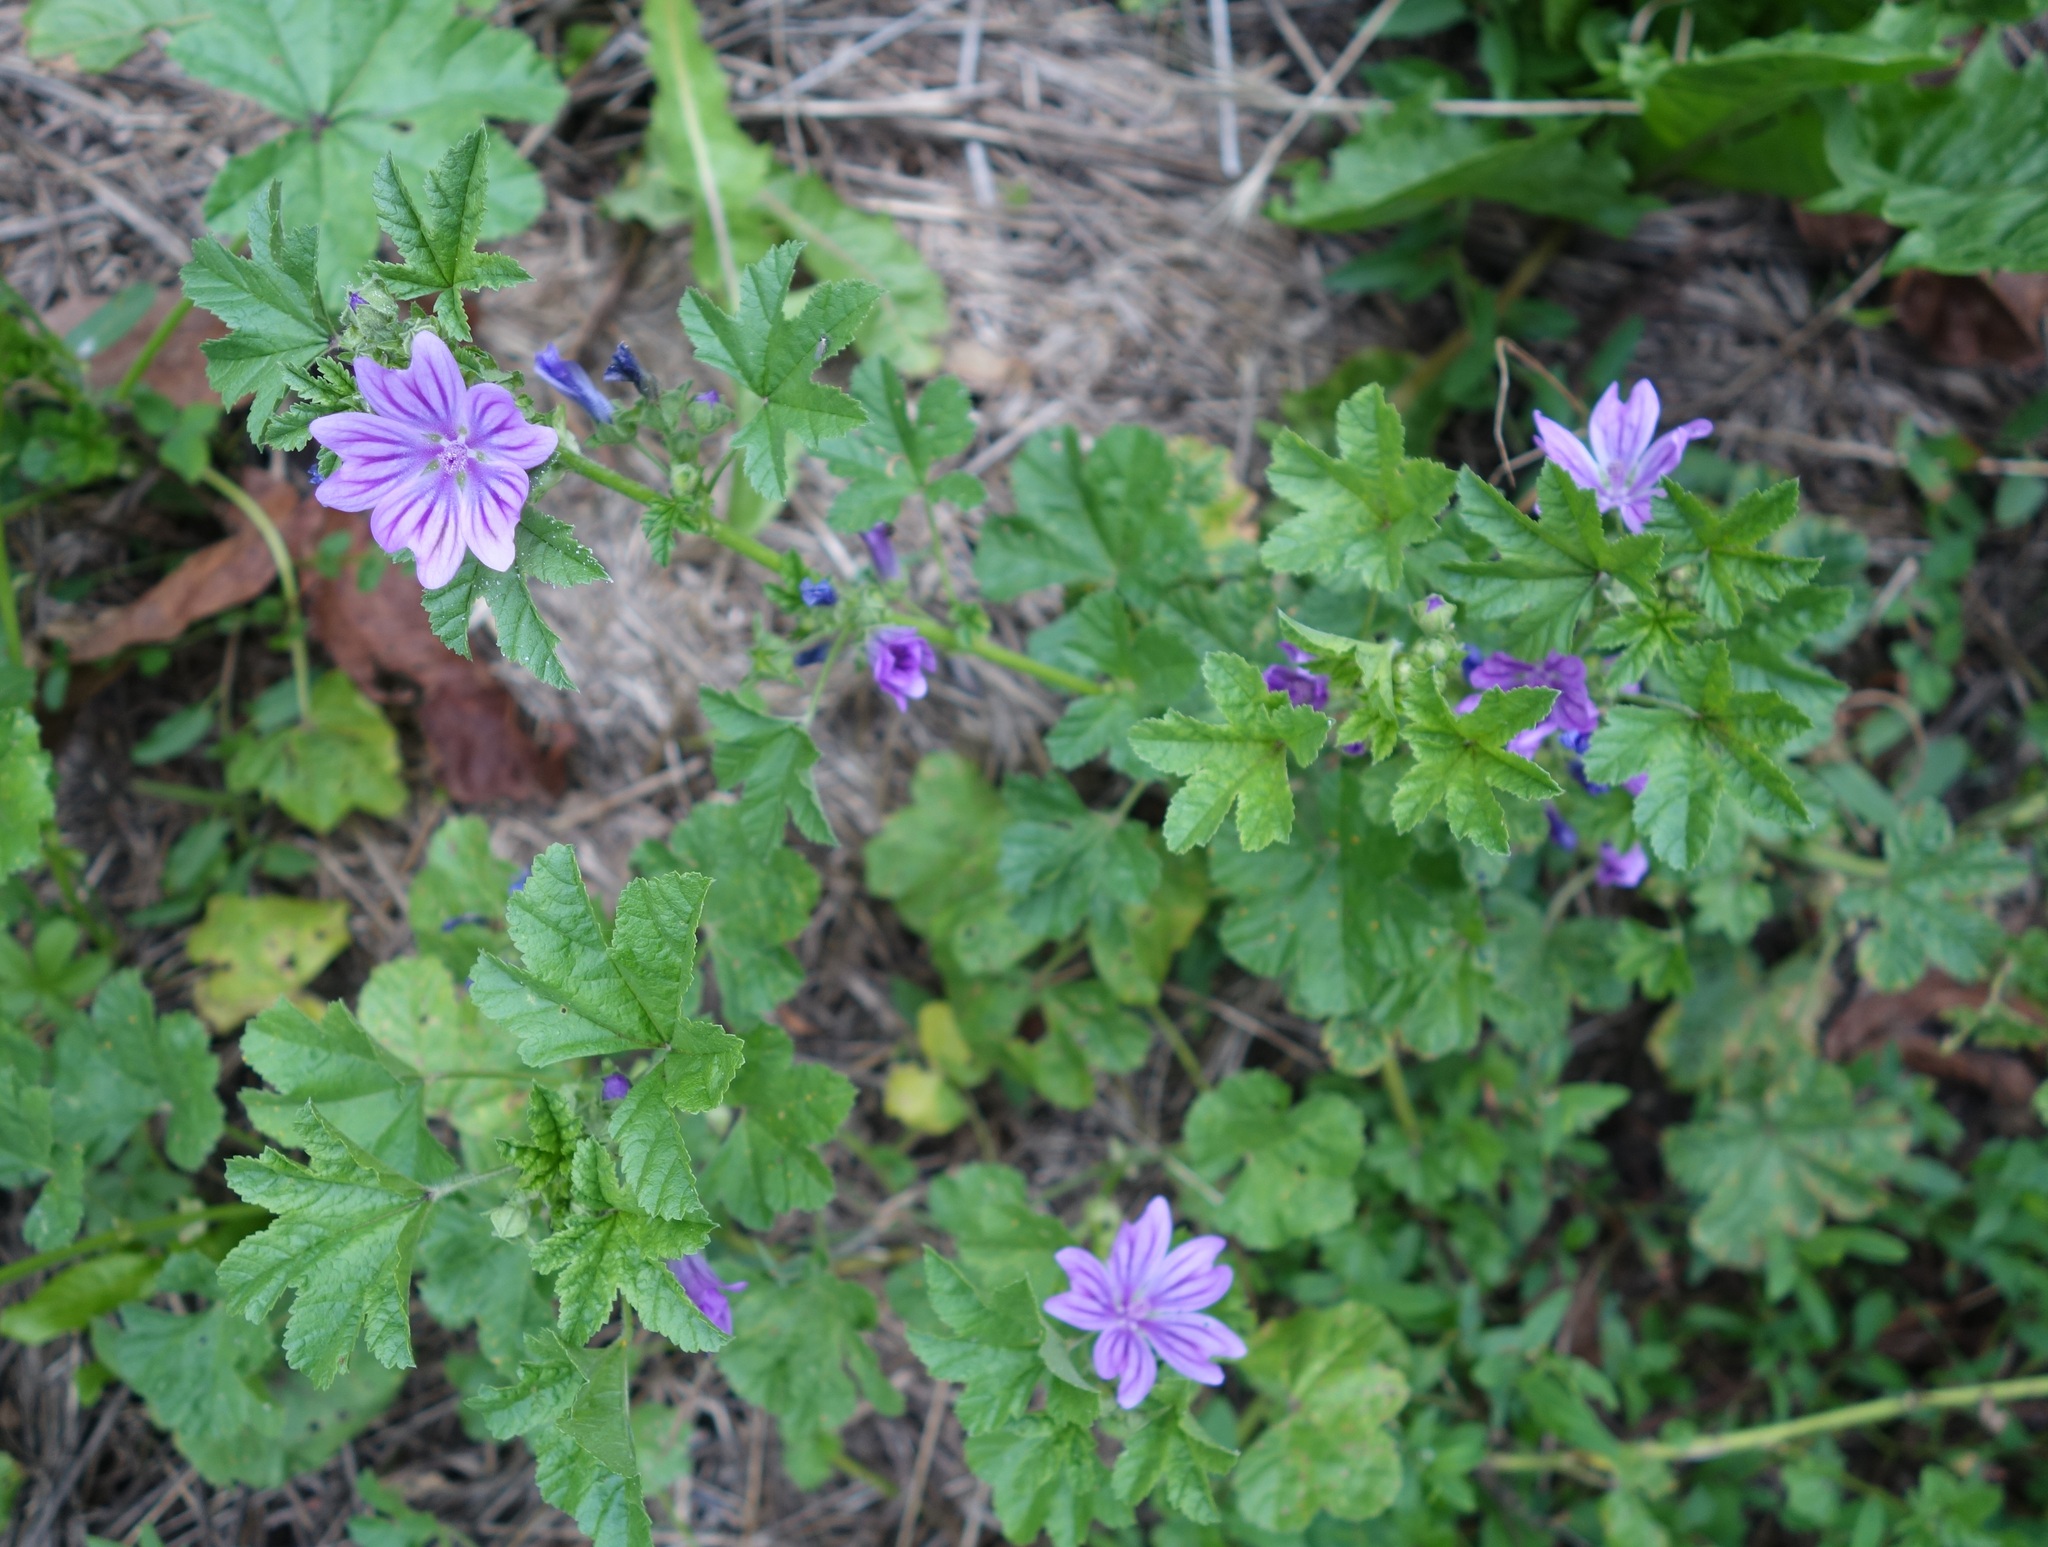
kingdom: Plantae
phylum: Tracheophyta
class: Magnoliopsida
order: Malvales
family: Malvaceae
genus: Malva
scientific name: Malva sylvestris
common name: Common mallow
